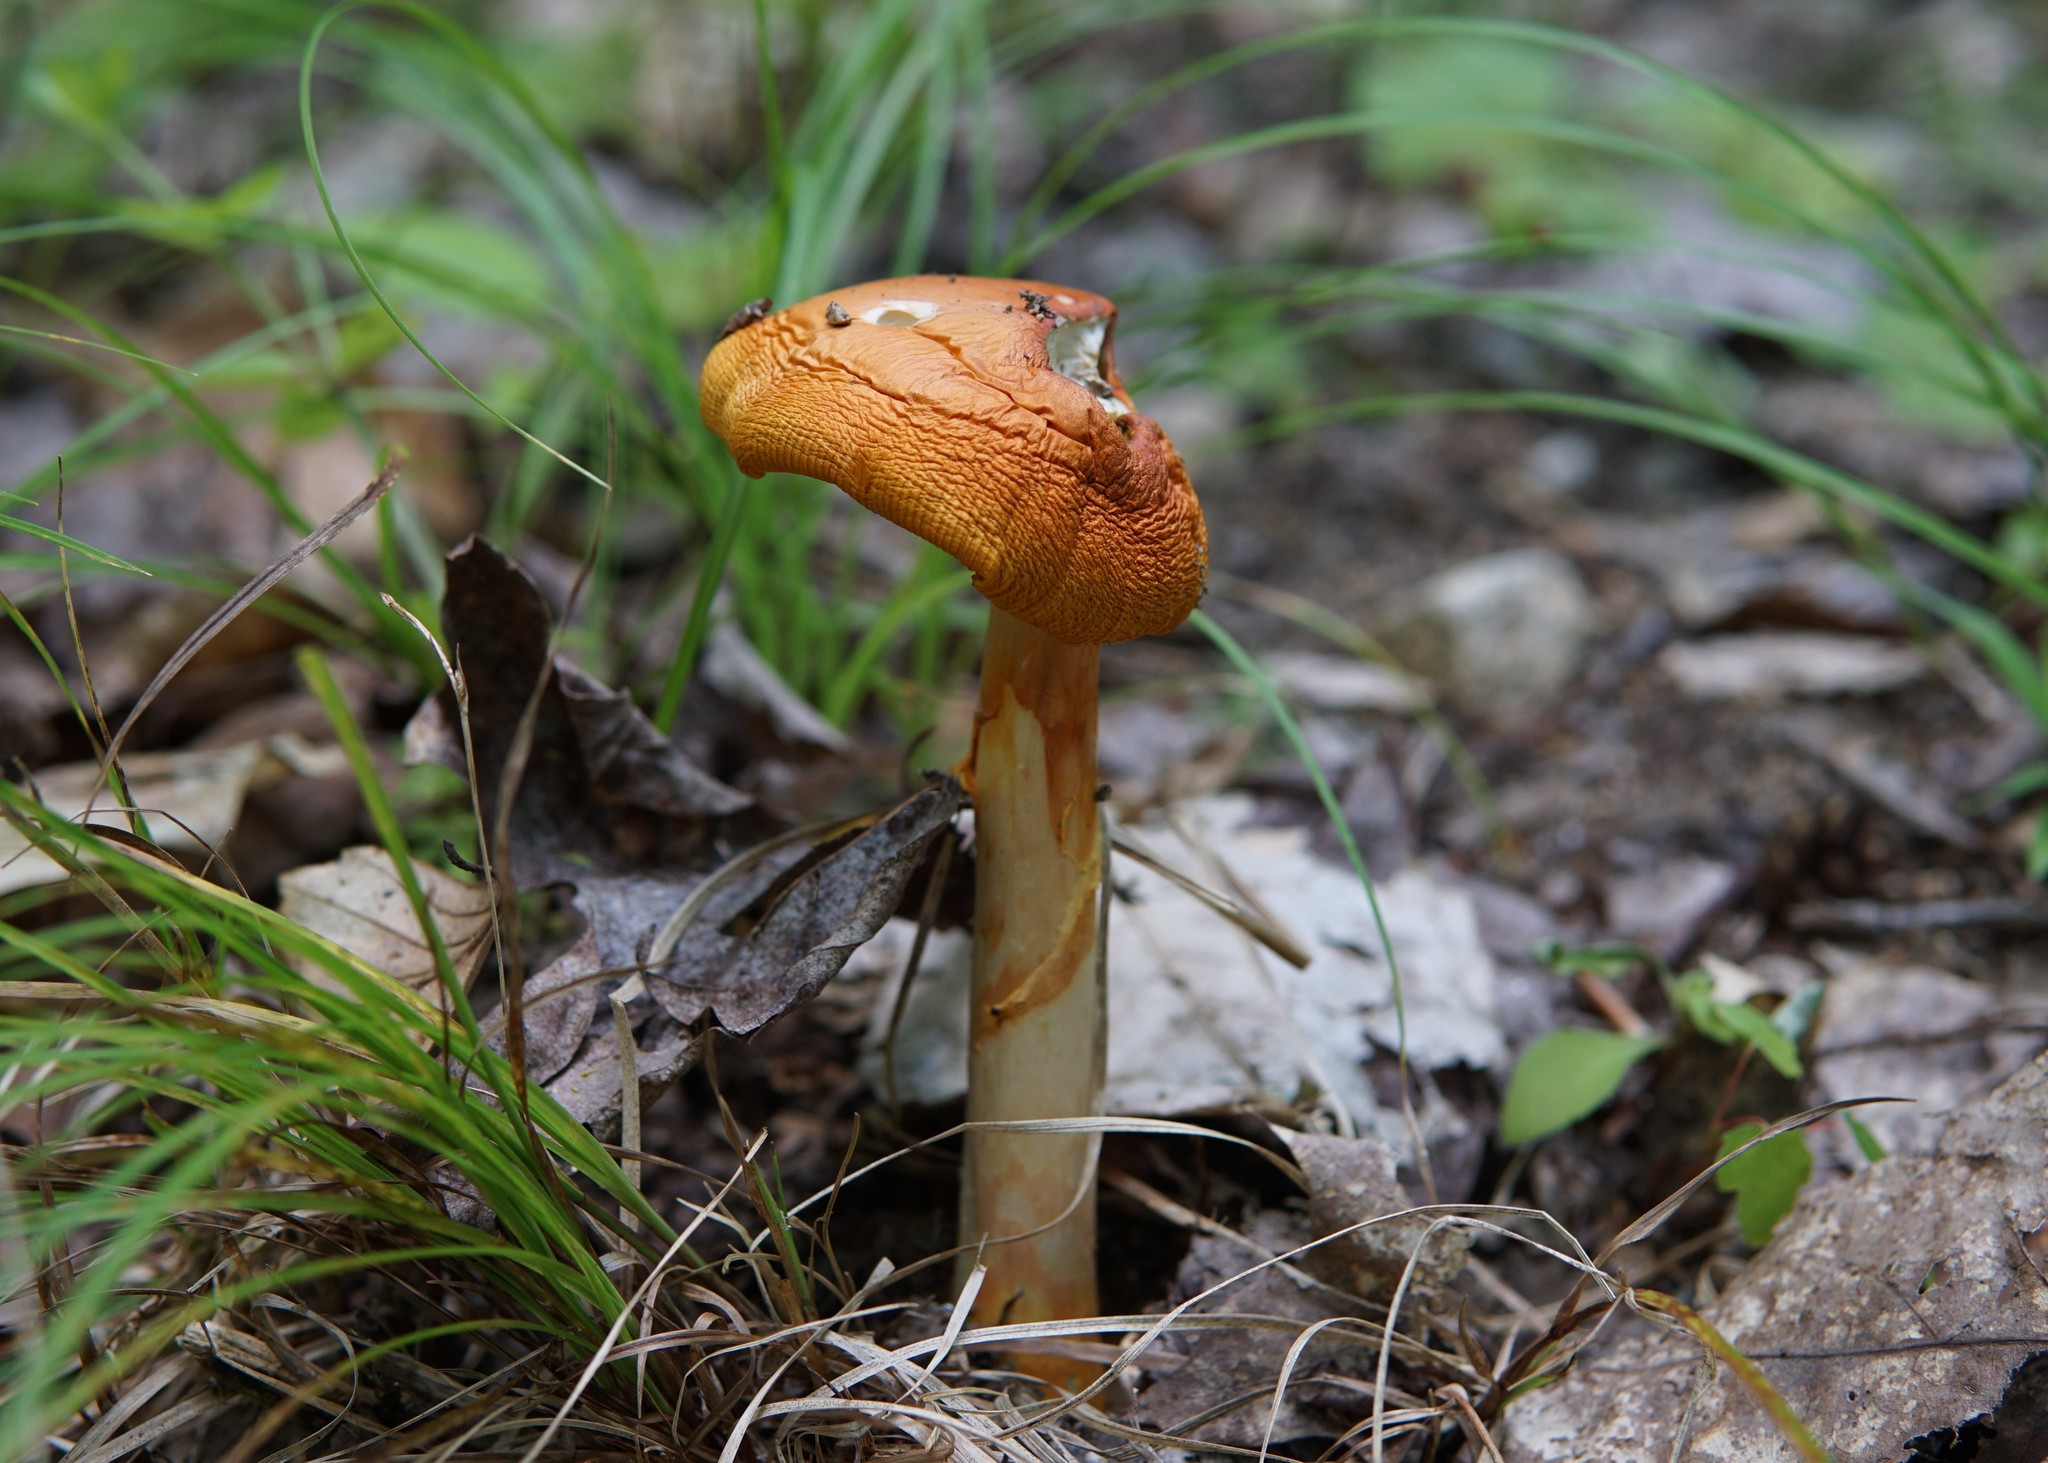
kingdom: Fungi
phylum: Basidiomycota
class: Agaricomycetes
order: Agaricales
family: Amanitaceae
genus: Amanita
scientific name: Amanita jacksonii
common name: Jackson's slender caesar
